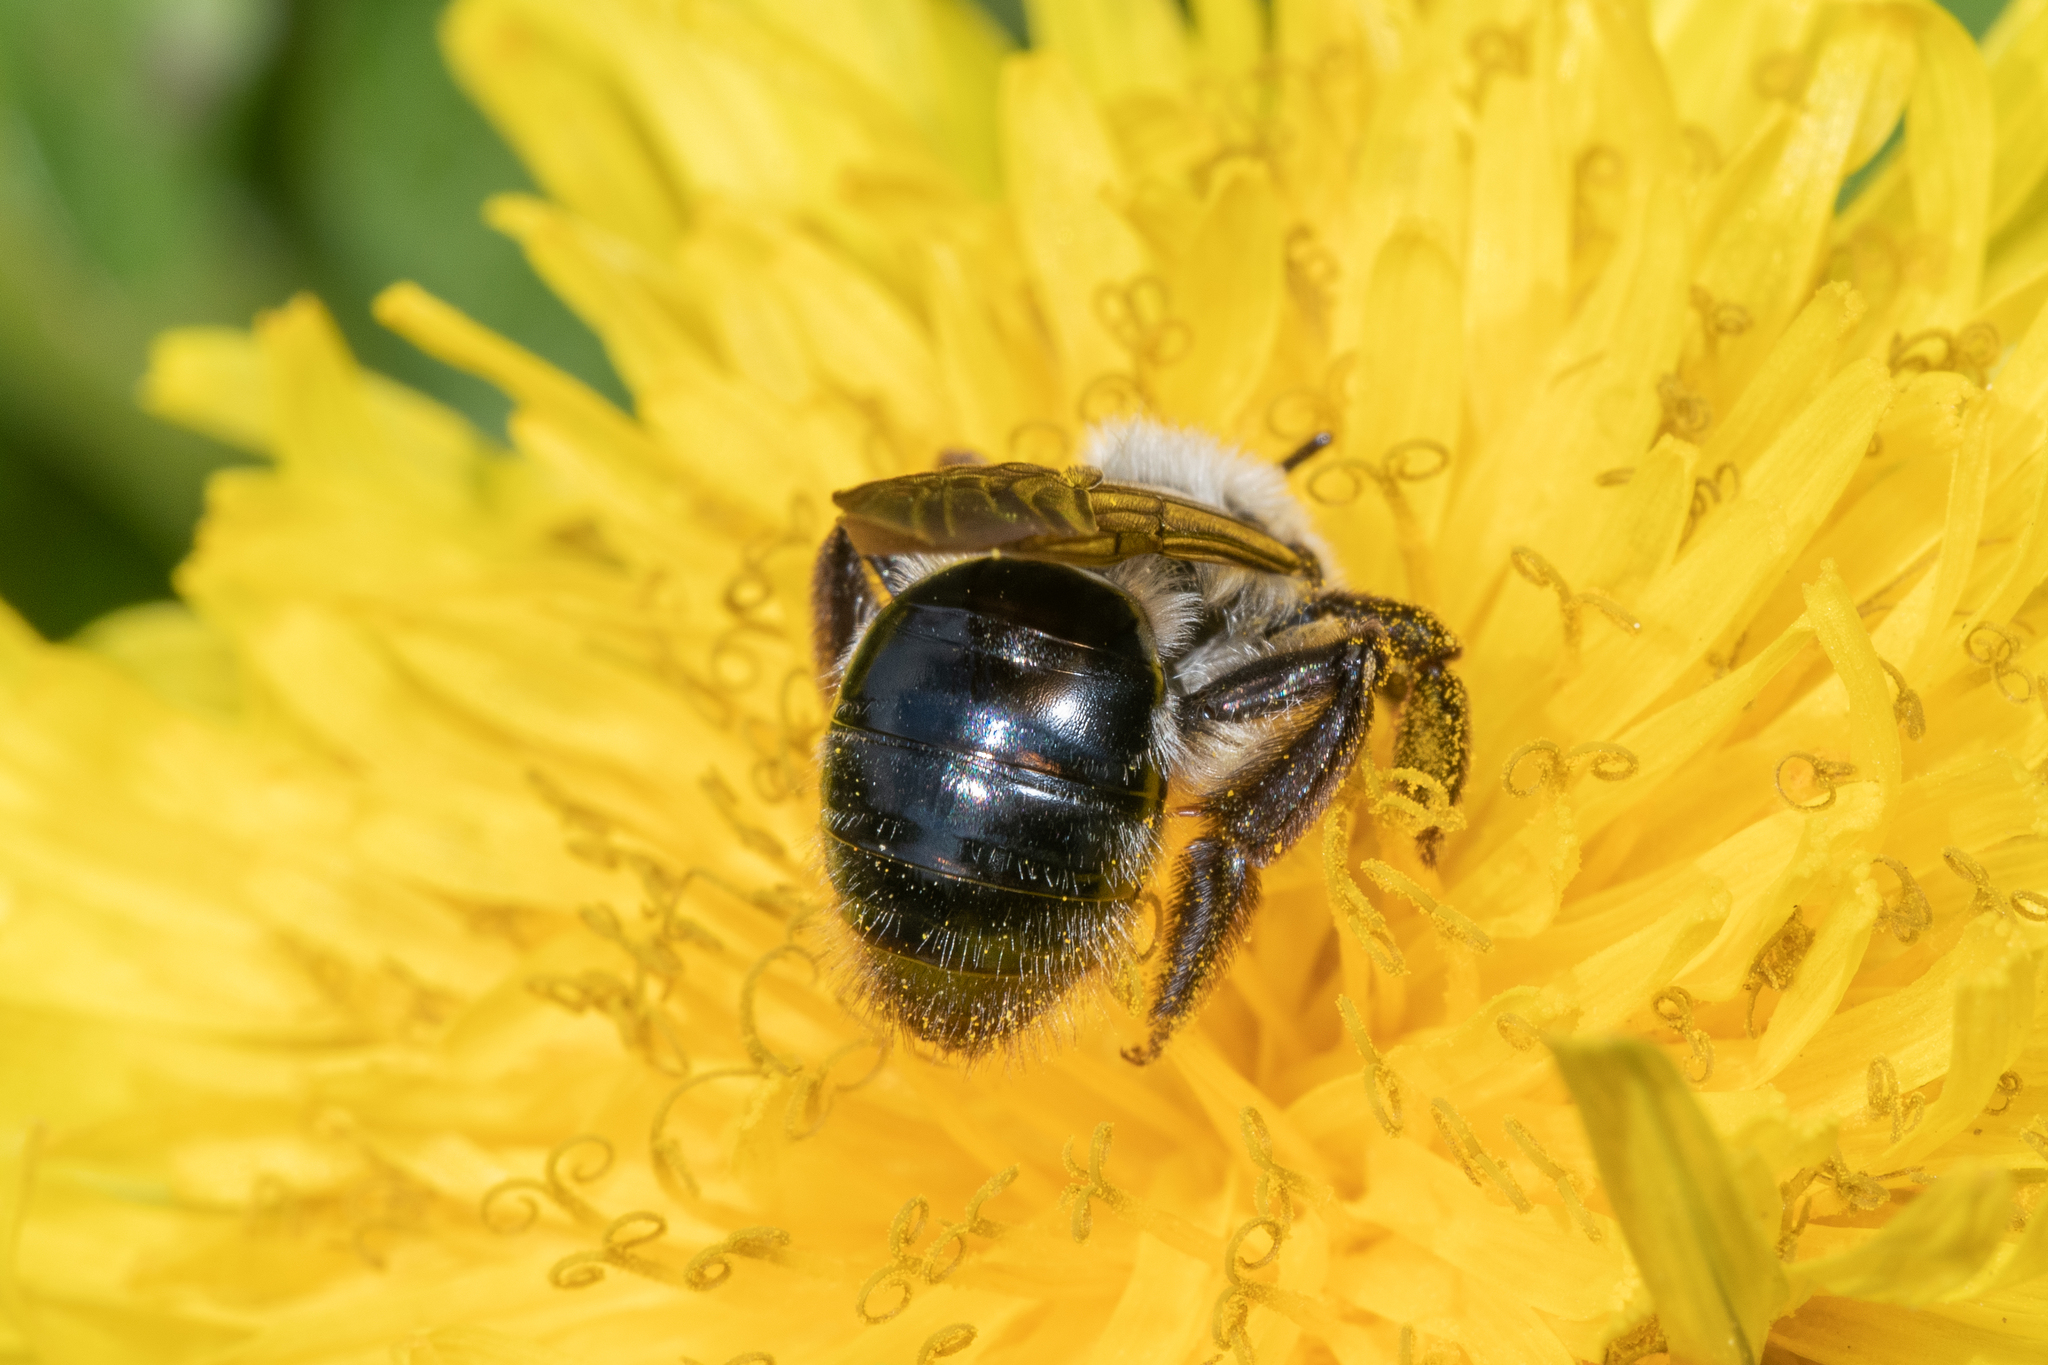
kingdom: Animalia
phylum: Arthropoda
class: Insecta
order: Hymenoptera
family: Andrenidae
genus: Andrena
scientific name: Andrena vaga
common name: Grey-backed mining bee
